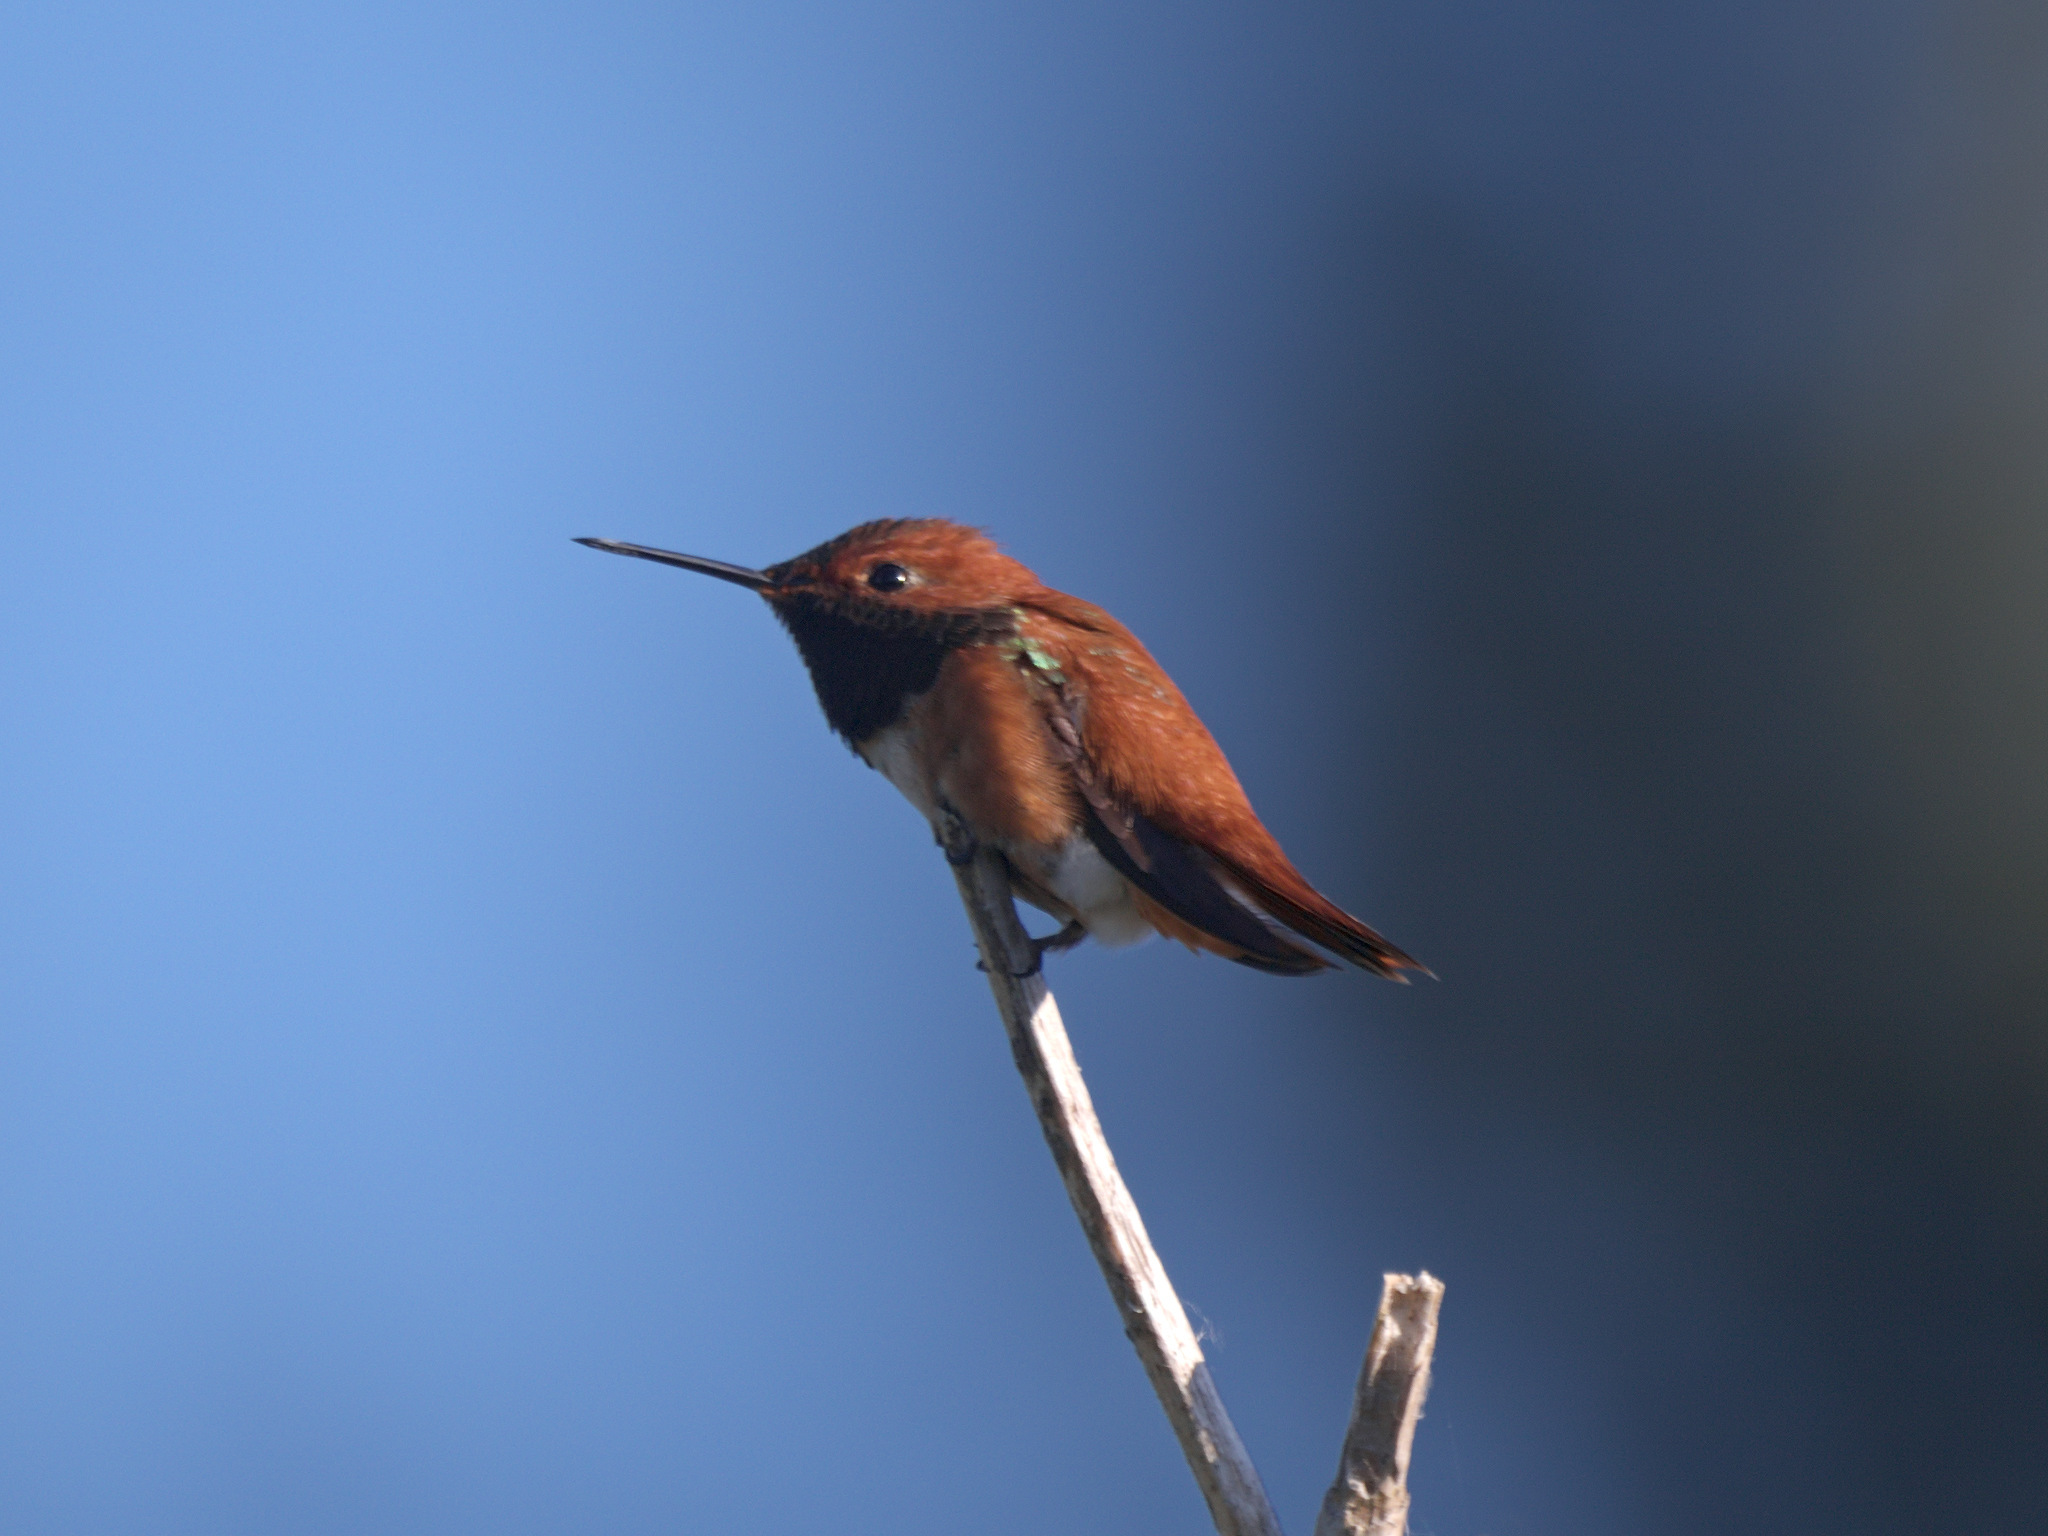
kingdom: Animalia
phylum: Chordata
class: Aves
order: Apodiformes
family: Trochilidae
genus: Selasphorus
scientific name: Selasphorus rufus
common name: Rufous hummingbird
